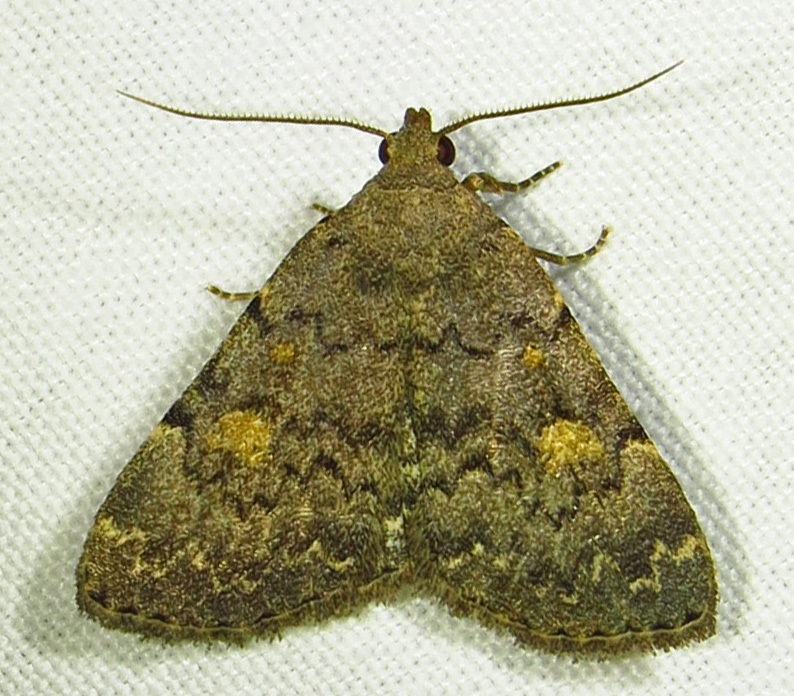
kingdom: Animalia
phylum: Arthropoda
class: Insecta
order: Lepidoptera
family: Erebidae
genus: Idia
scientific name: Idia aemula
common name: Common idia moth
